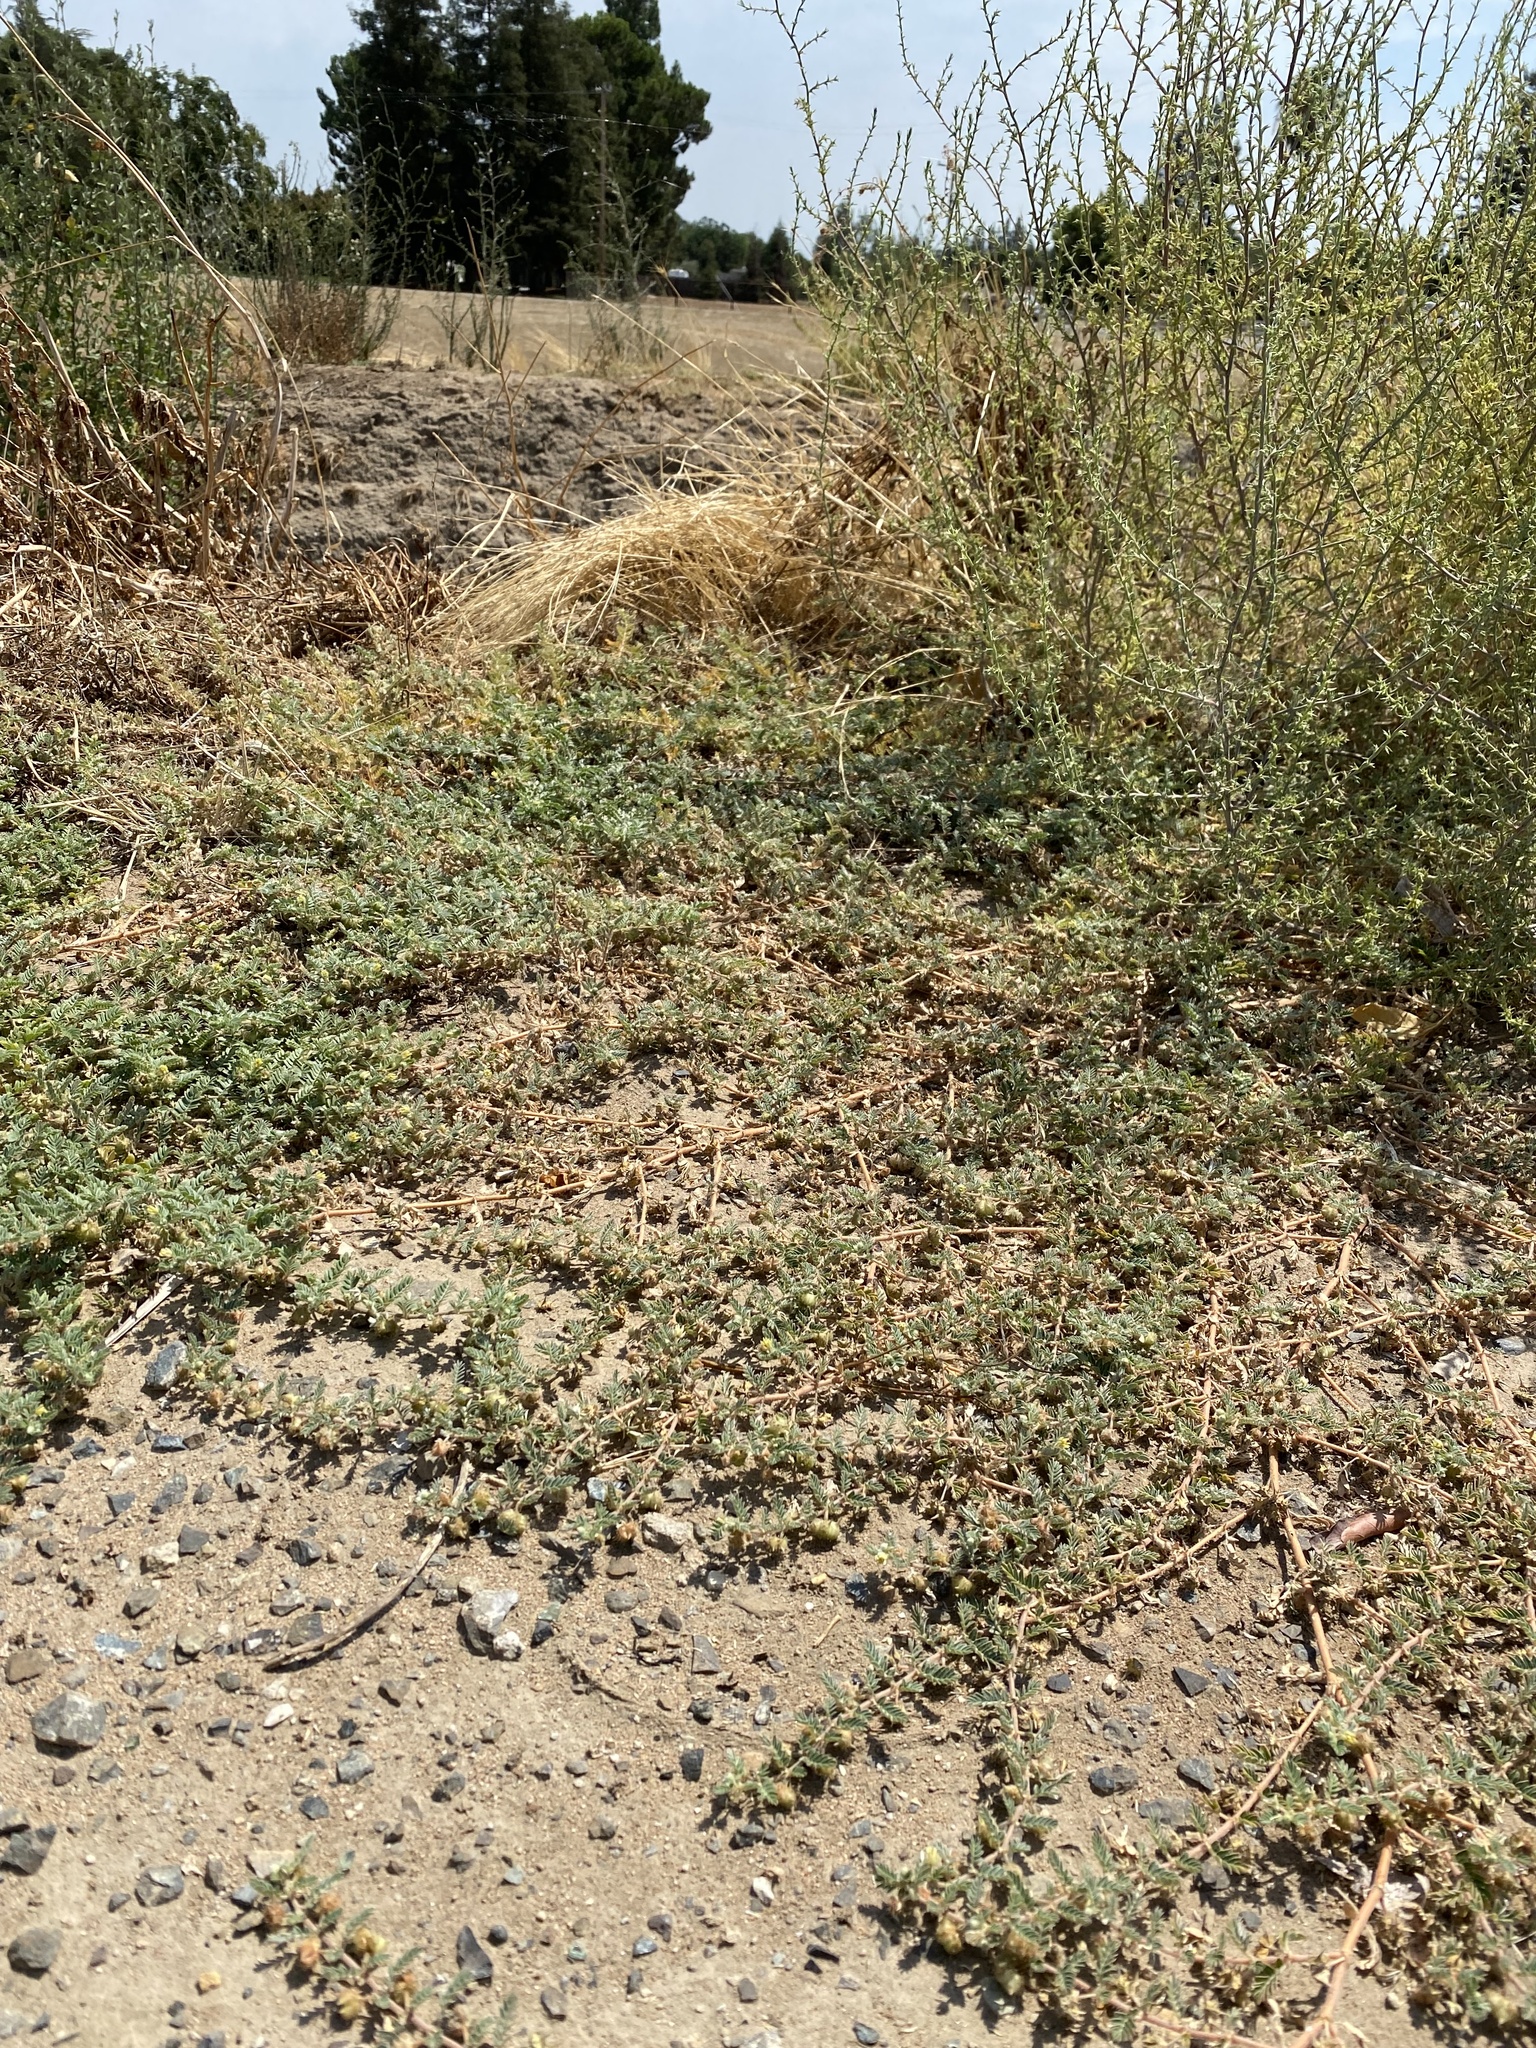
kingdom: Plantae
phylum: Tracheophyta
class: Magnoliopsida
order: Zygophyllales
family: Zygophyllaceae
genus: Tribulus
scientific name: Tribulus terrestris
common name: Puncturevine
